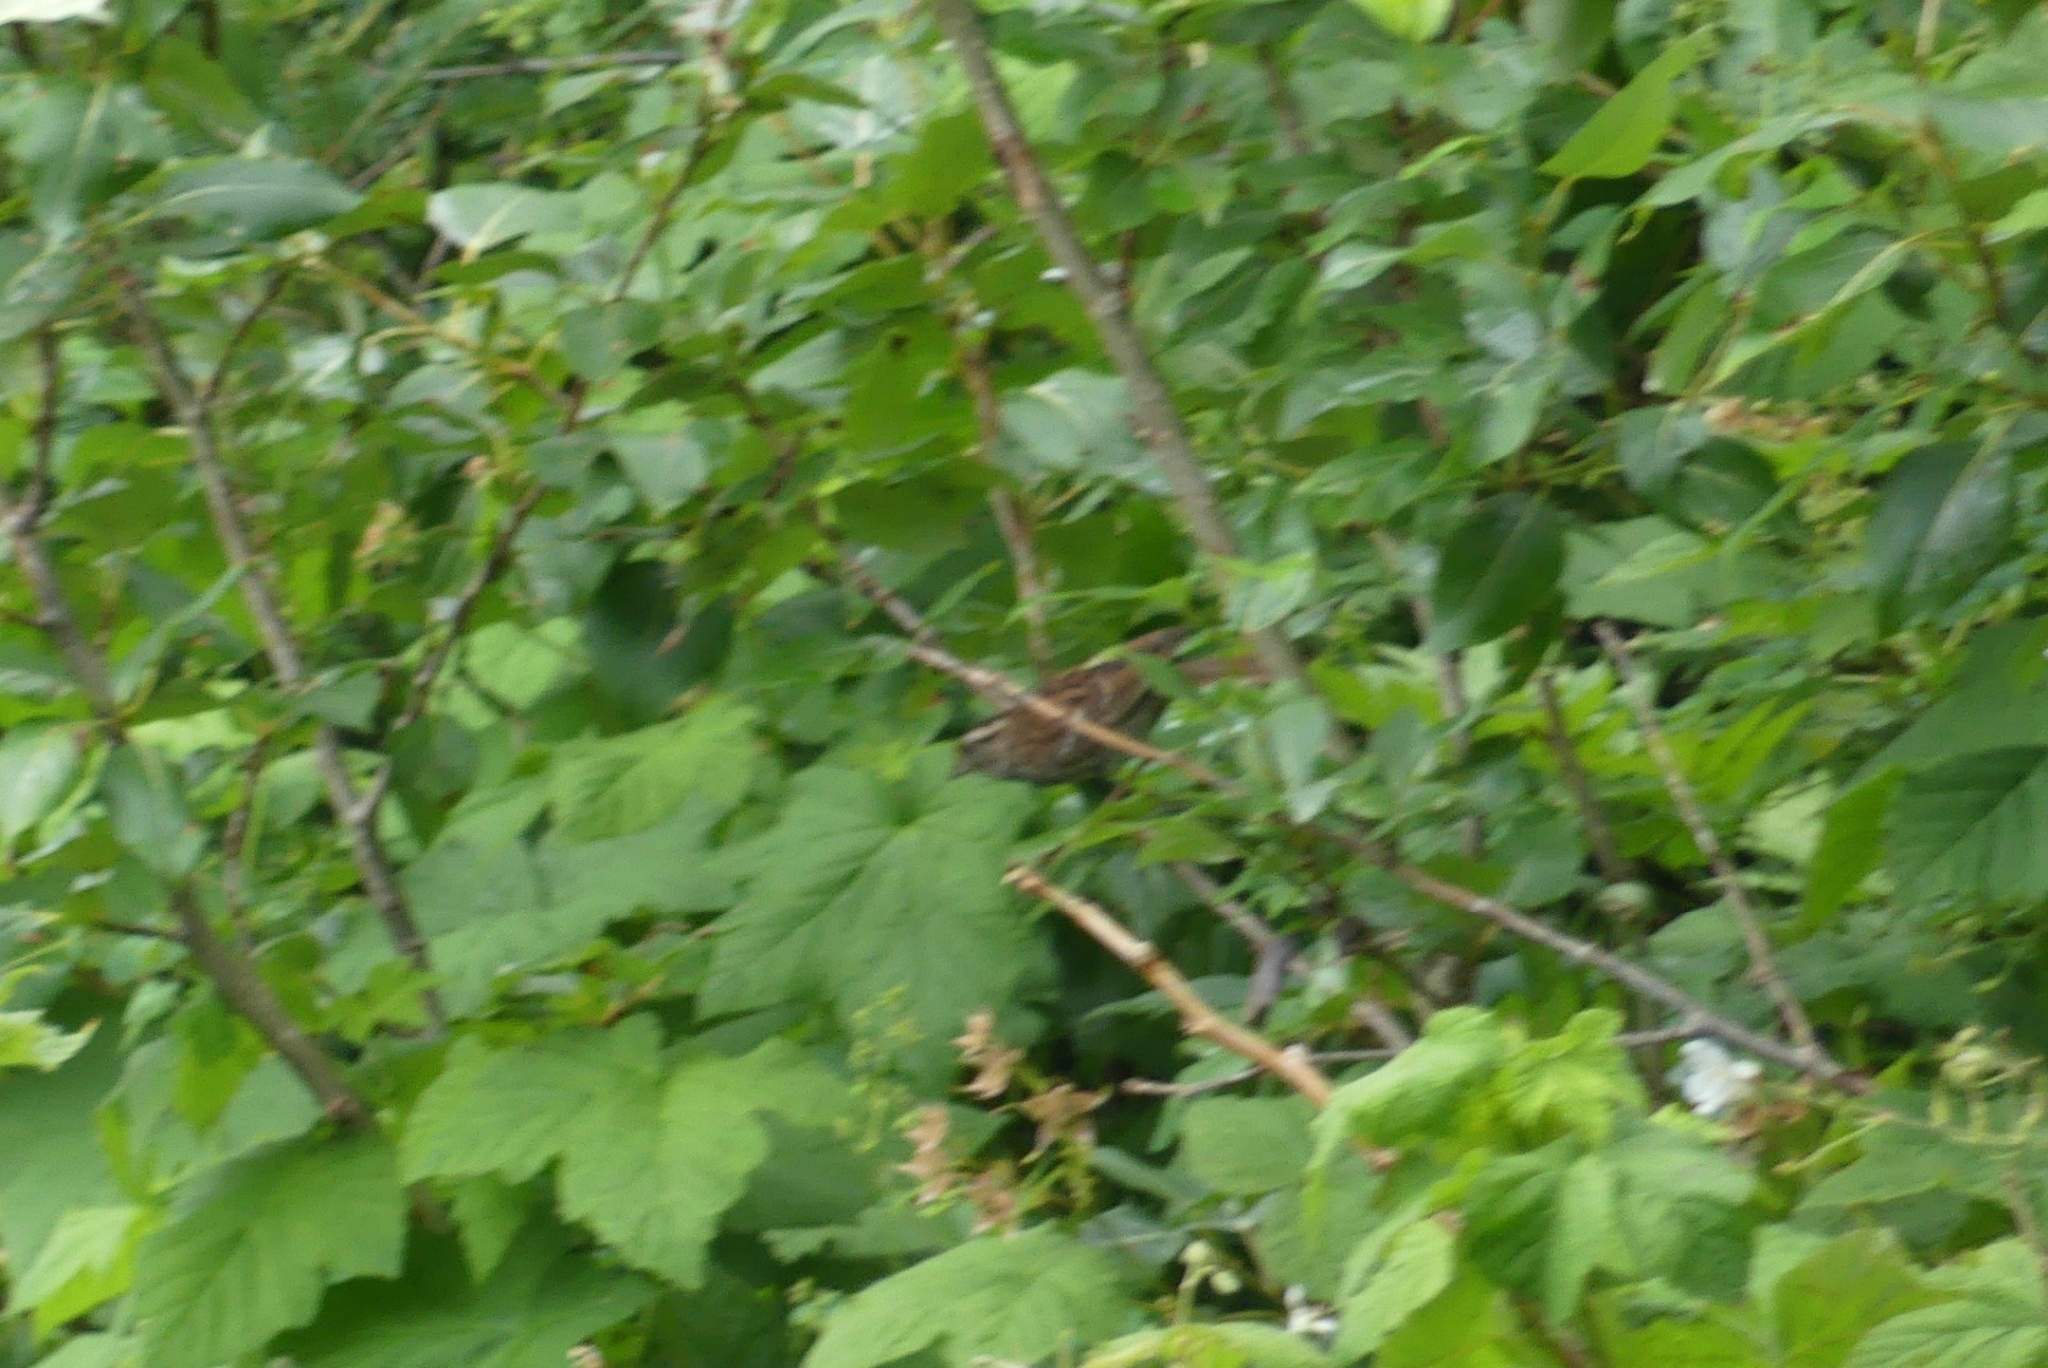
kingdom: Animalia
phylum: Chordata
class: Aves
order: Passeriformes
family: Passerellidae
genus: Zonotrichia
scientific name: Zonotrichia albicollis
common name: White-throated sparrow
